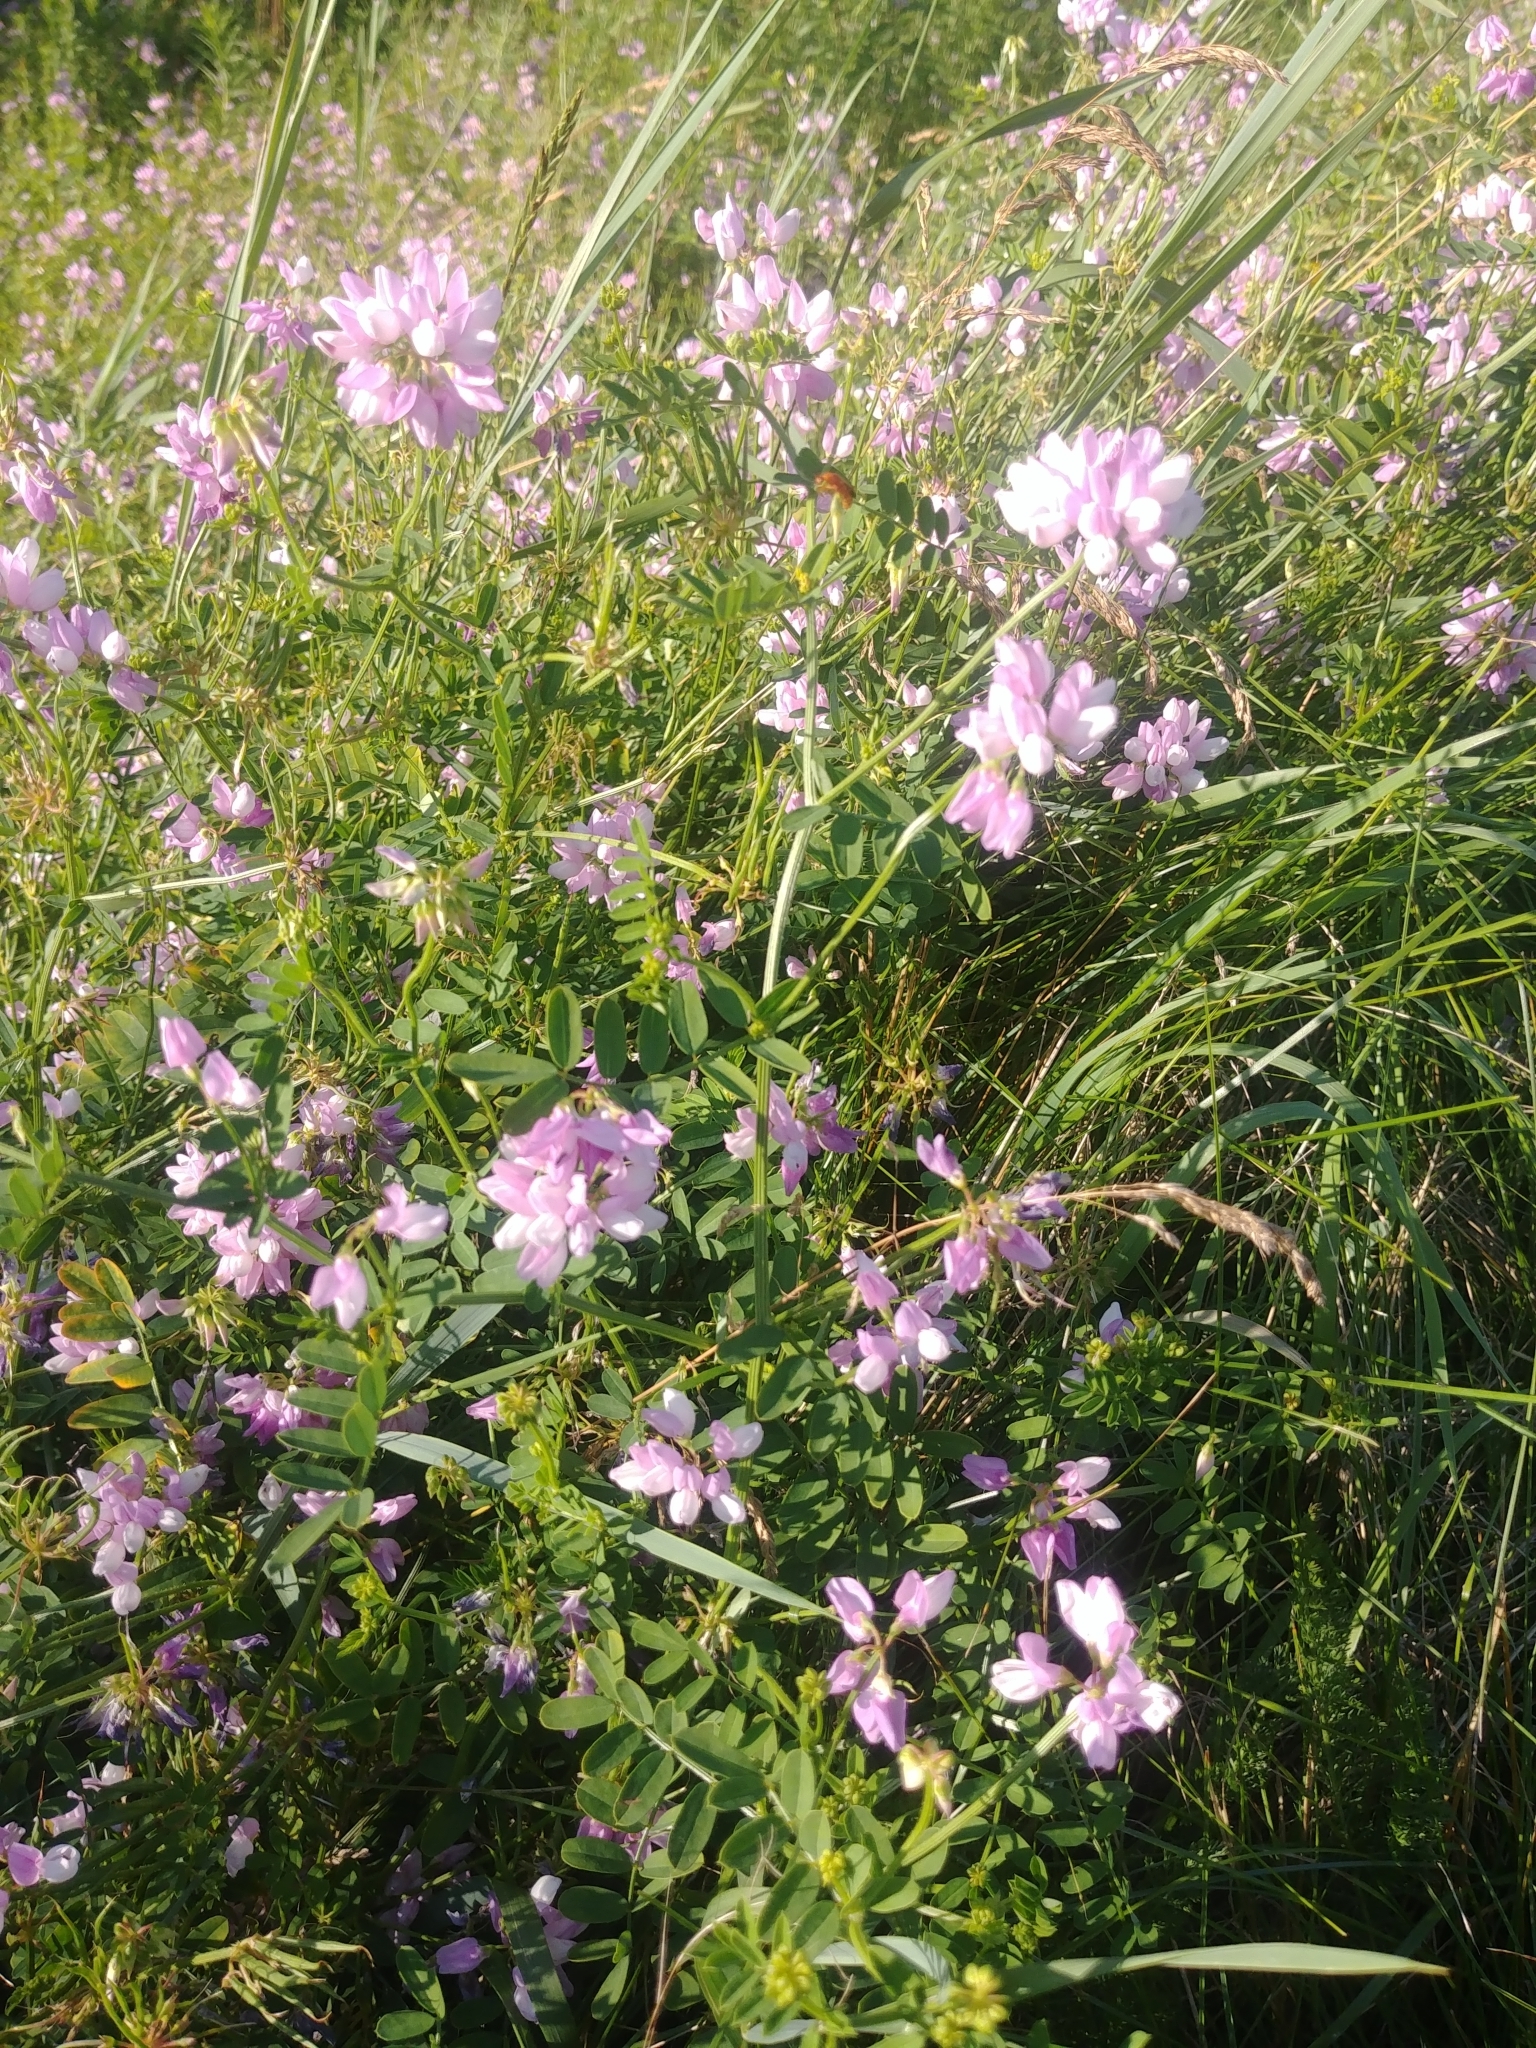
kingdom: Plantae
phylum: Tracheophyta
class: Magnoliopsida
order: Fabales
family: Fabaceae
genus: Coronilla
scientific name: Coronilla varia
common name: Crownvetch
